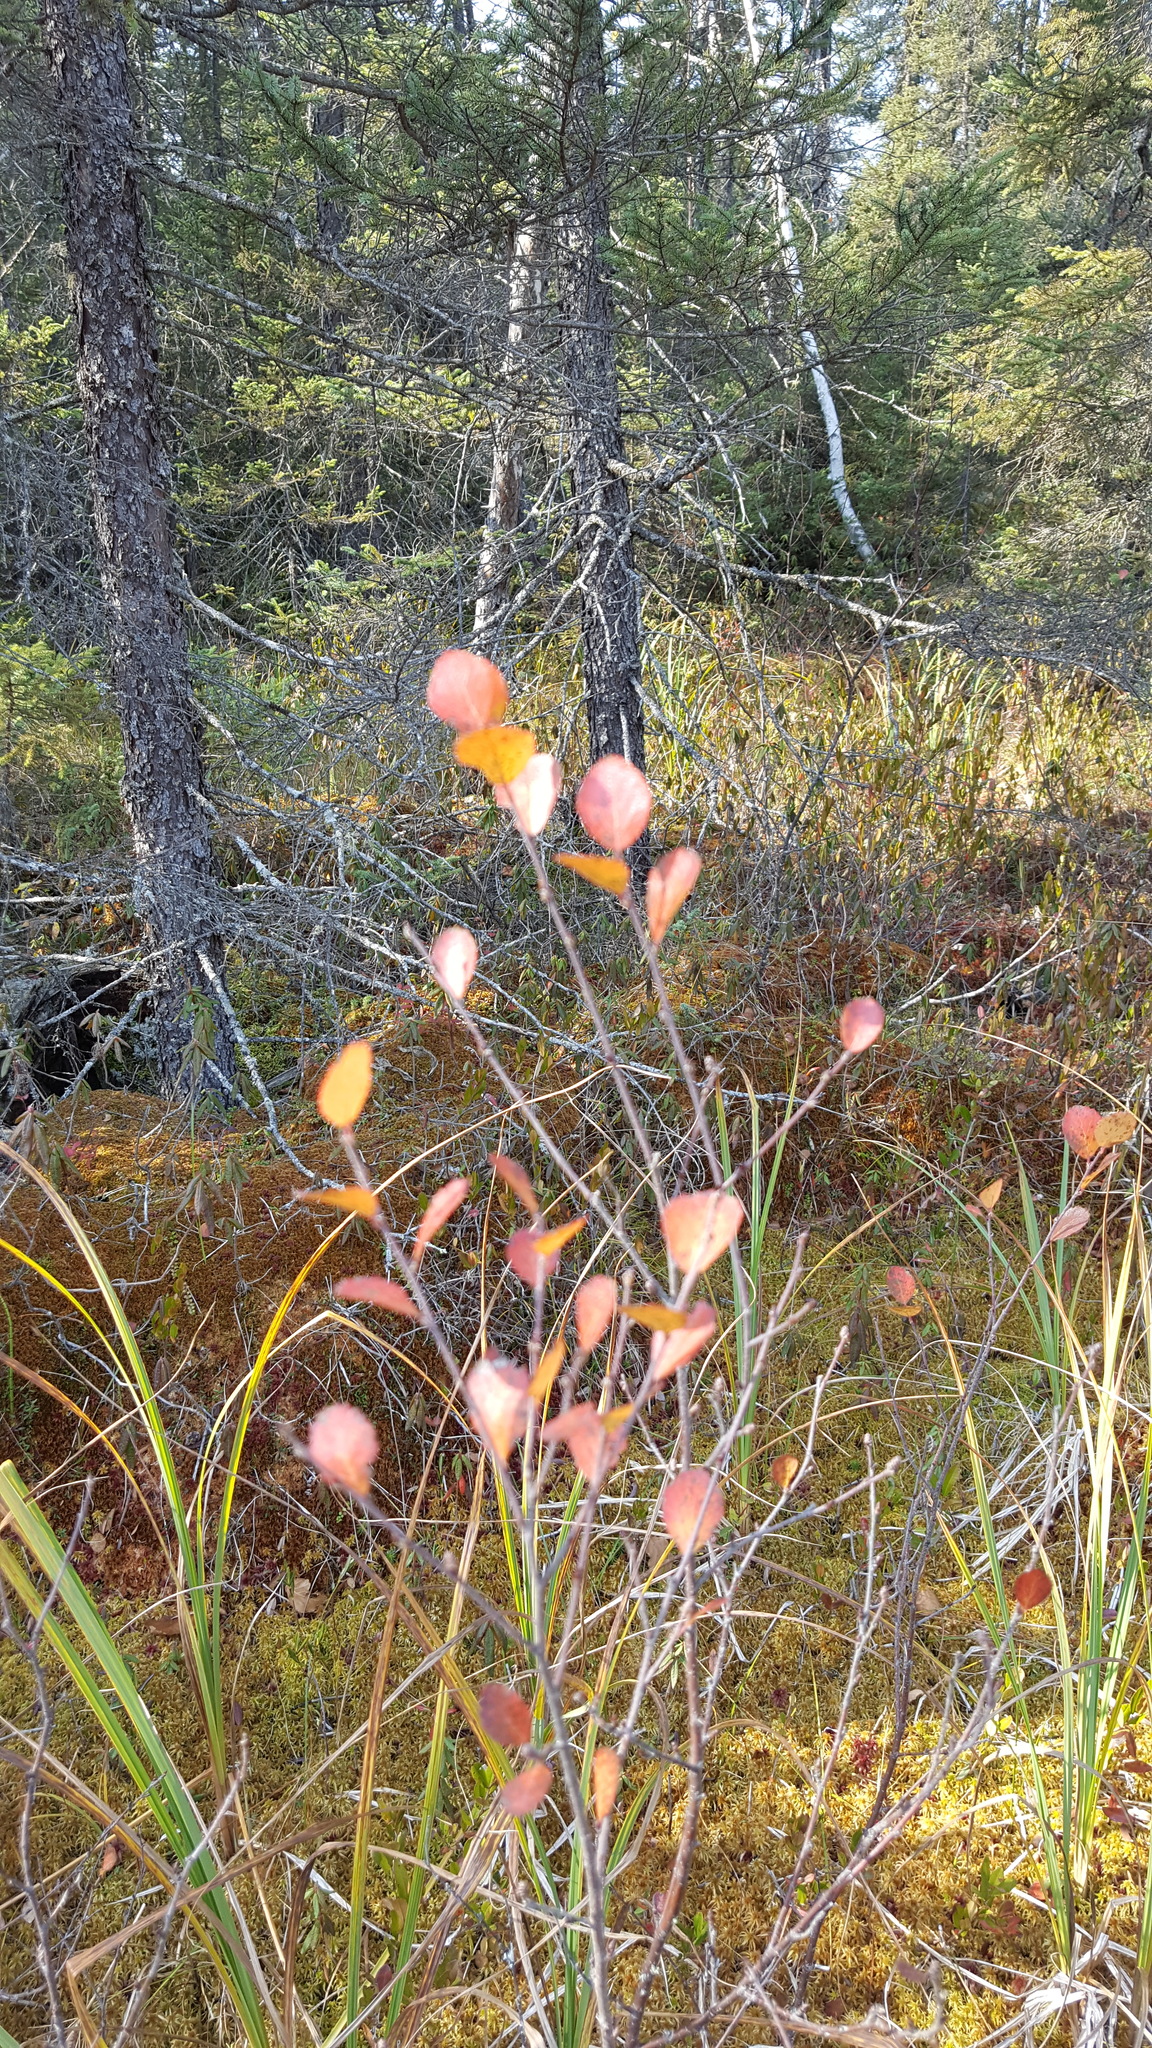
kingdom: Plantae
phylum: Tracheophyta
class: Magnoliopsida
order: Fagales
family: Betulaceae
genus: Betula
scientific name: Betula pumila
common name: Bog birch
